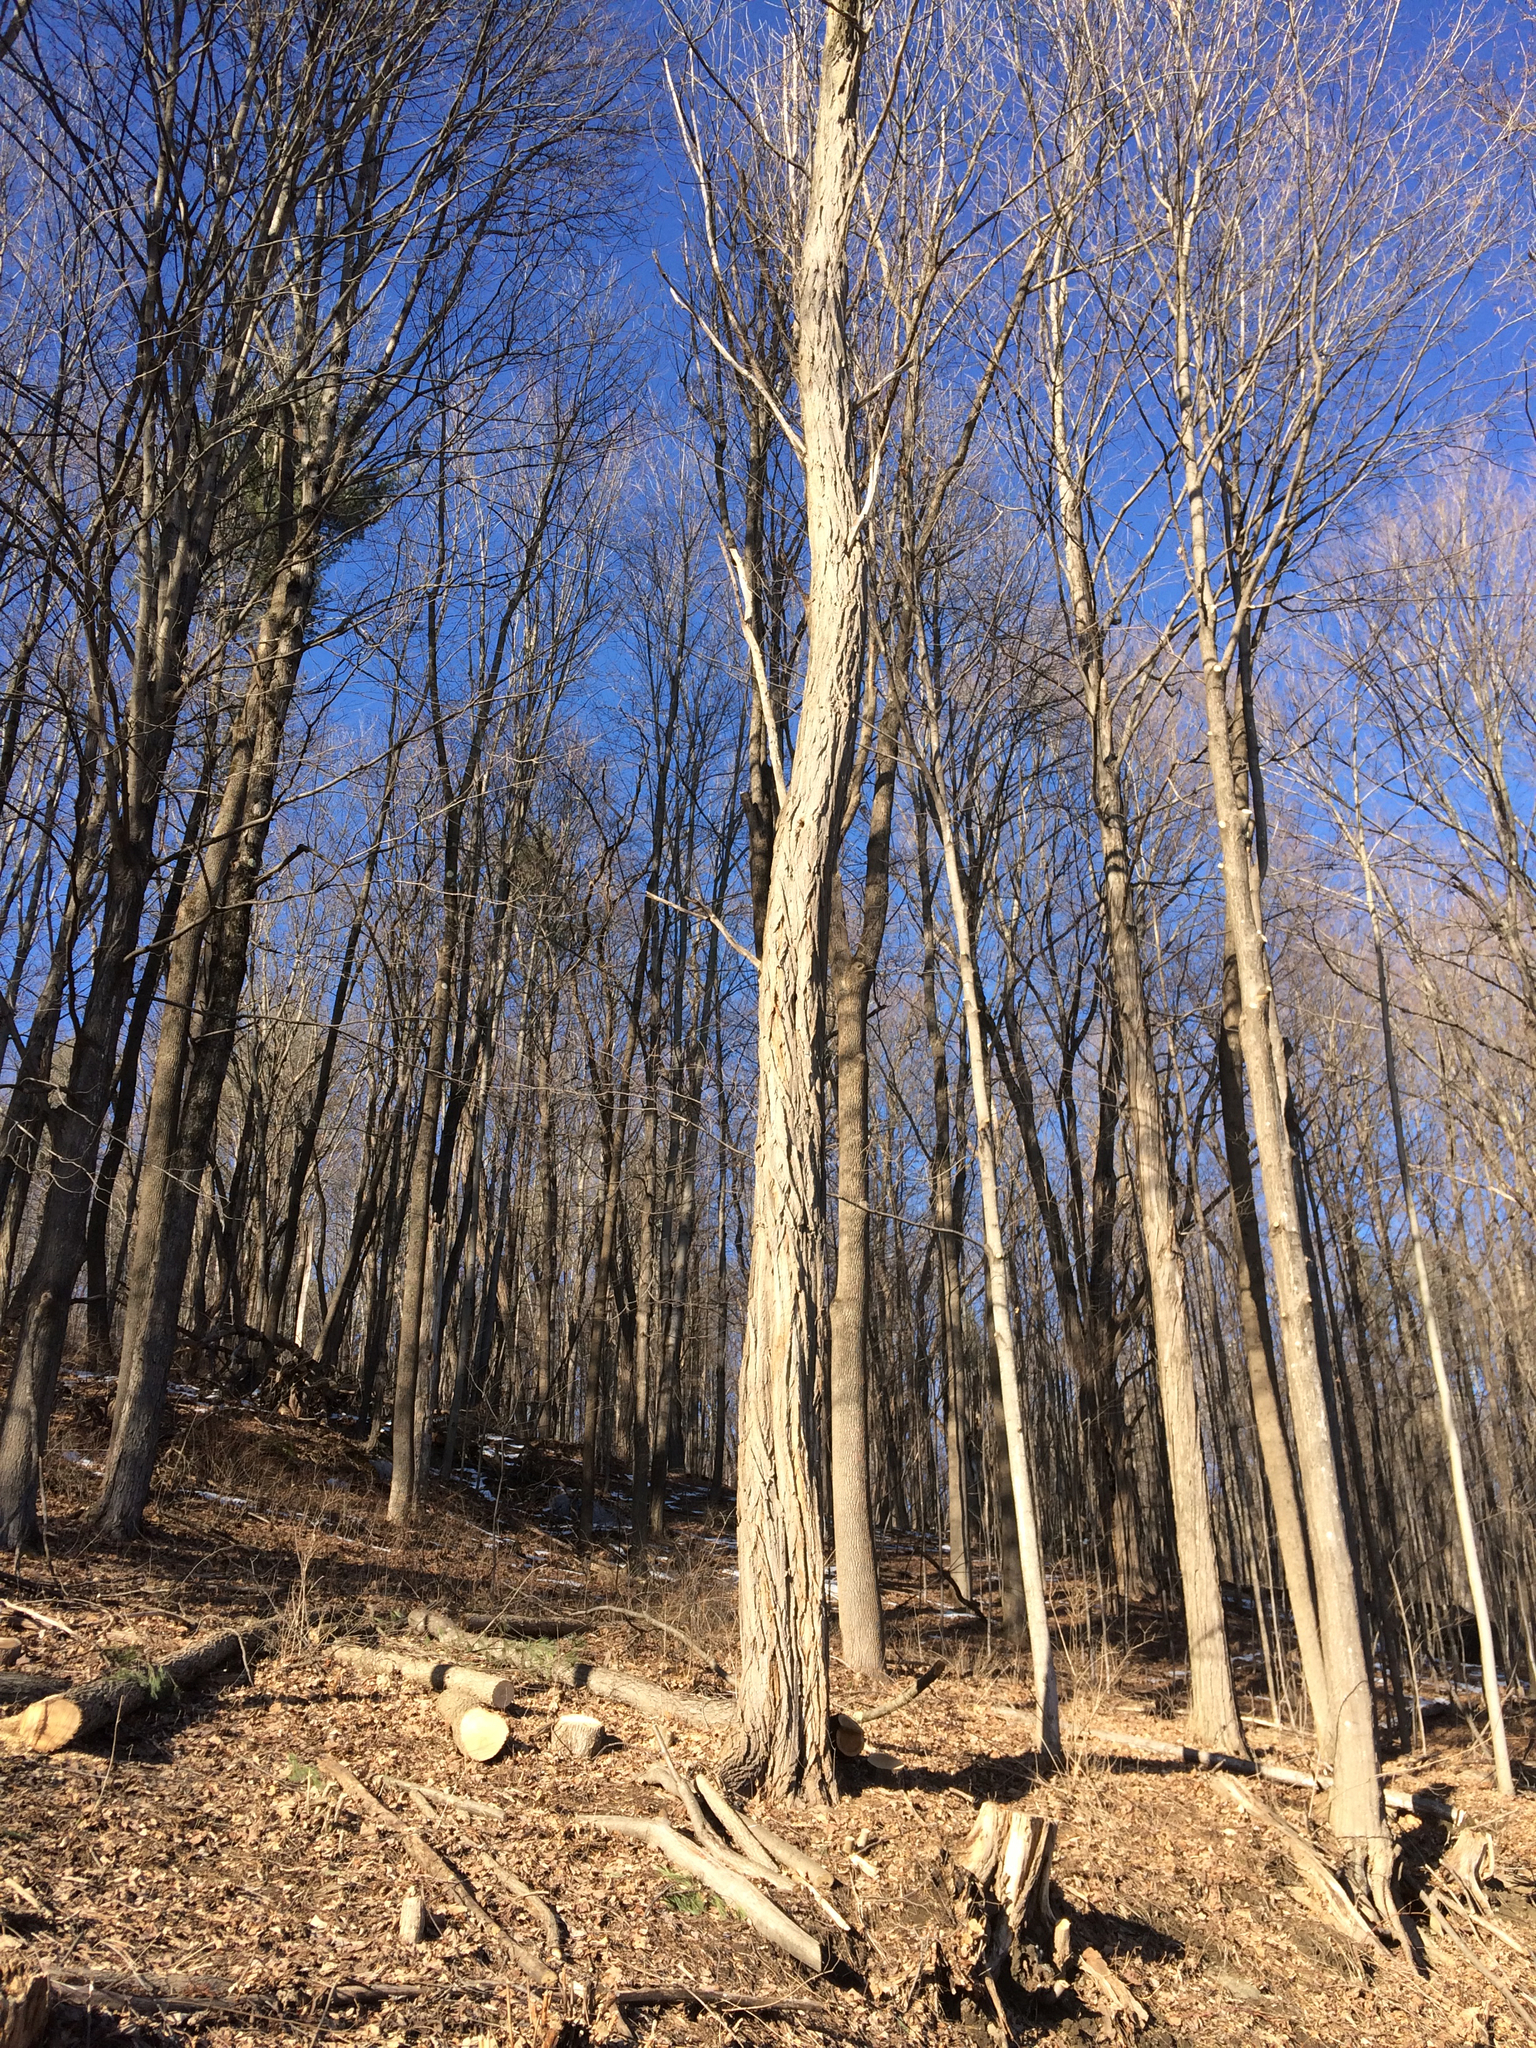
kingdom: Plantae
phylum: Tracheophyta
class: Magnoliopsida
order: Fabales
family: Fabaceae
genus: Robinia
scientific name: Robinia pseudoacacia
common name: Black locust
